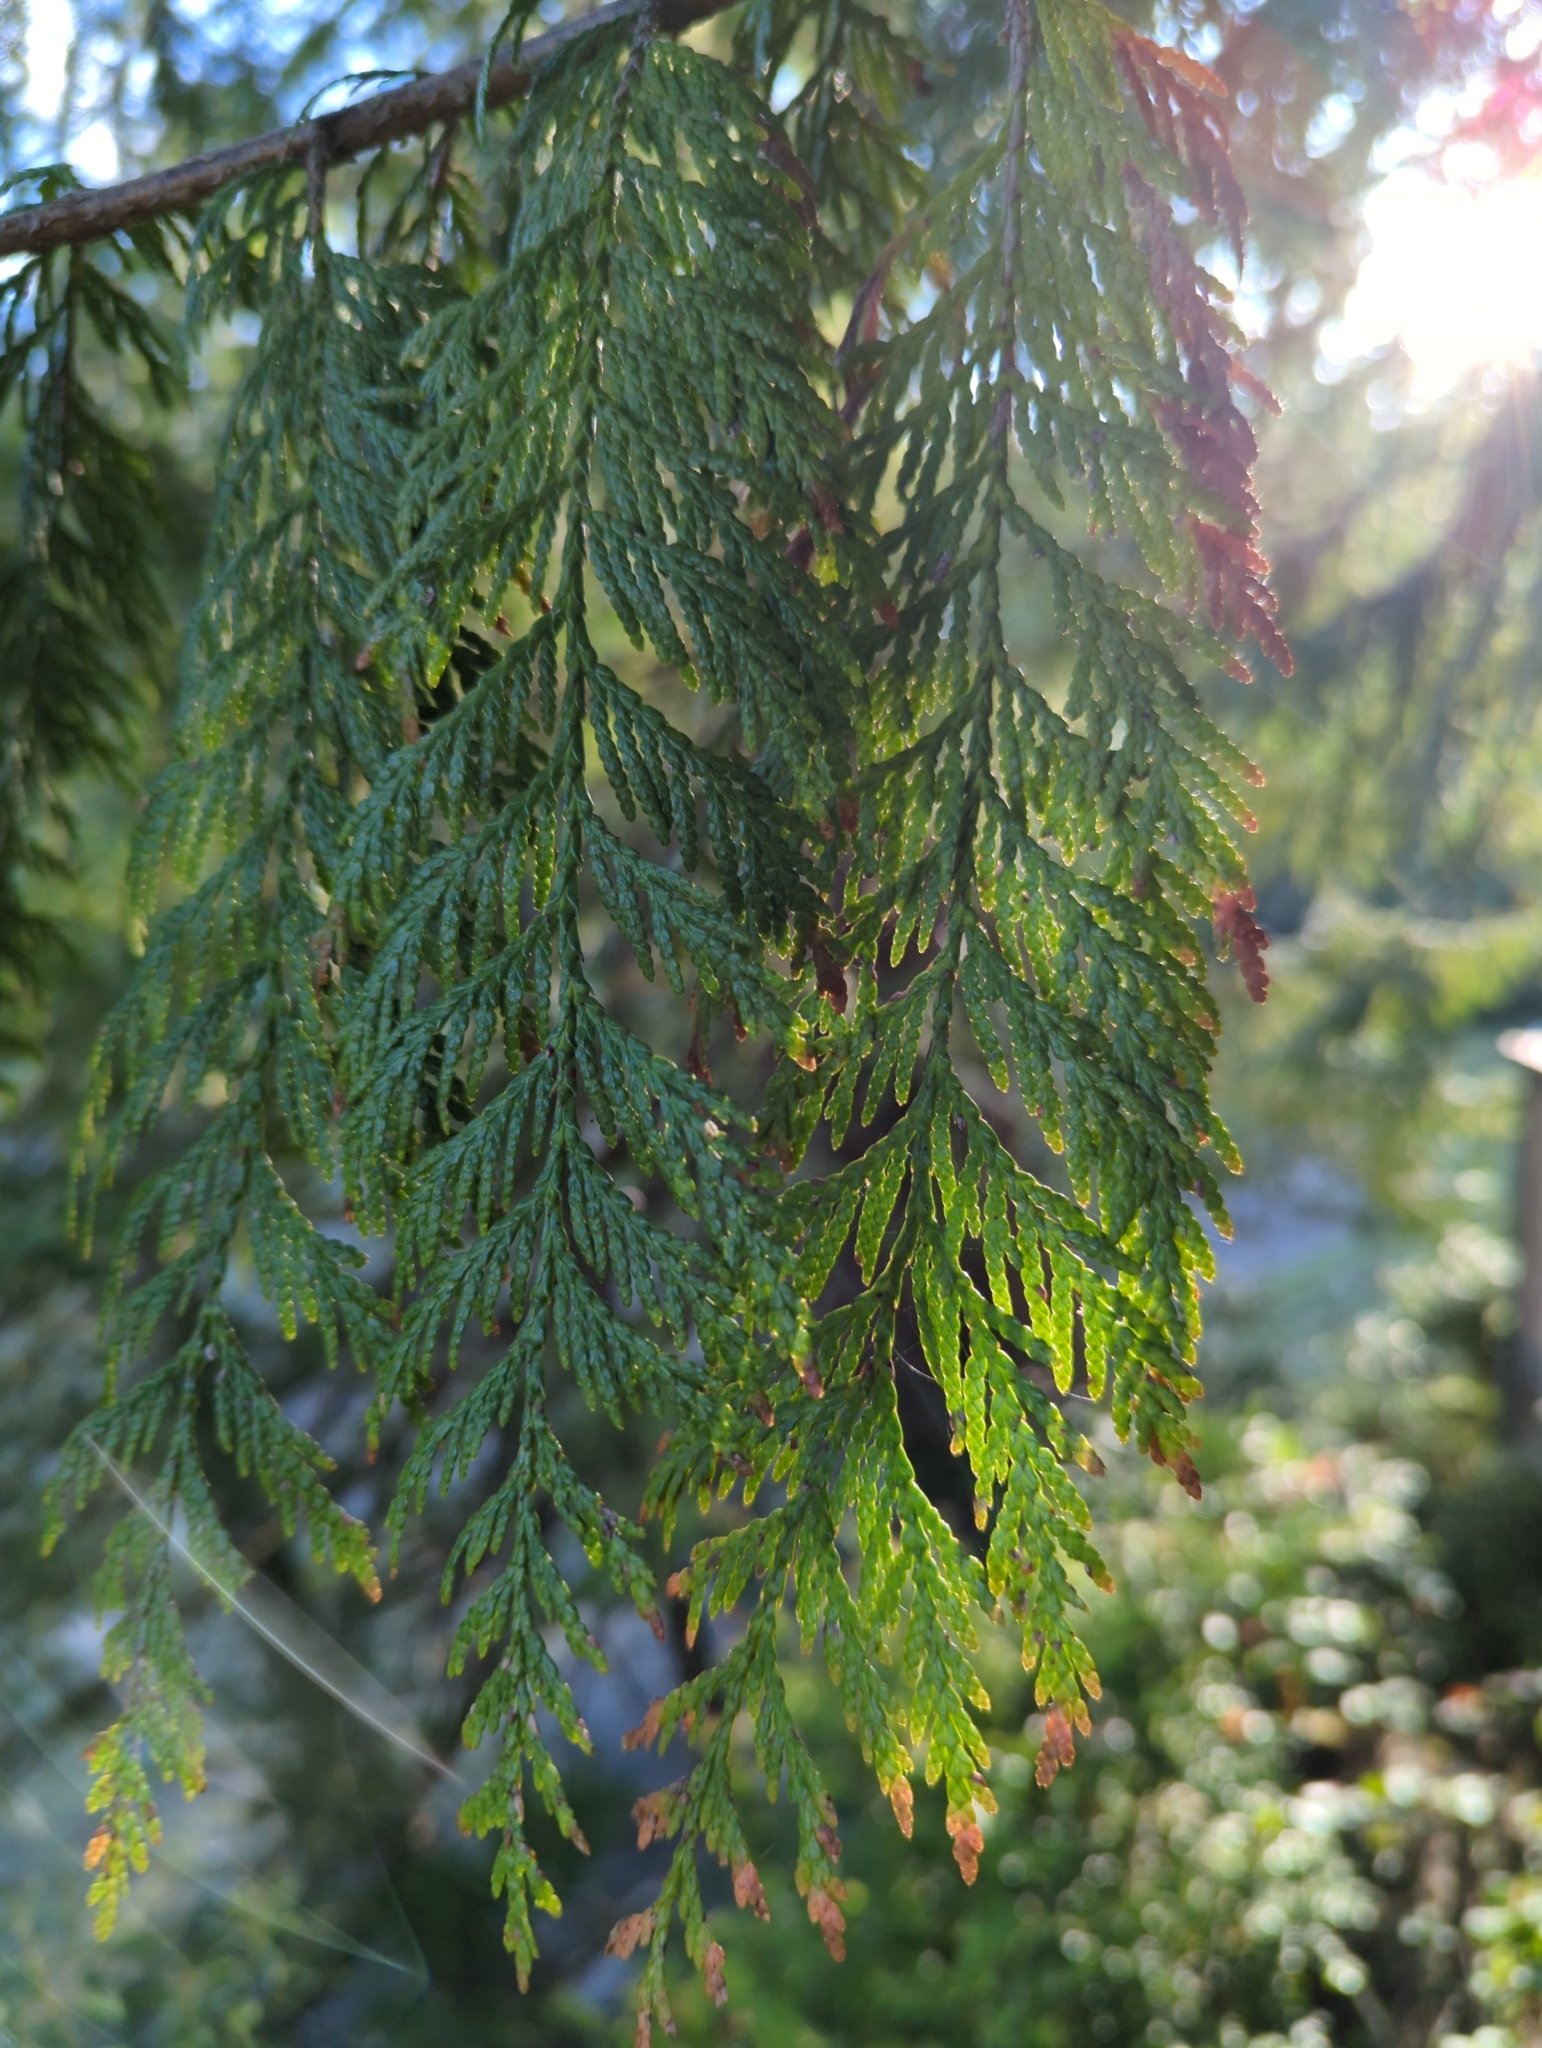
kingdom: Plantae
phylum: Tracheophyta
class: Pinopsida
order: Pinales
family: Cupressaceae
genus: Thuja
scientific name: Thuja plicata
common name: Western red-cedar
